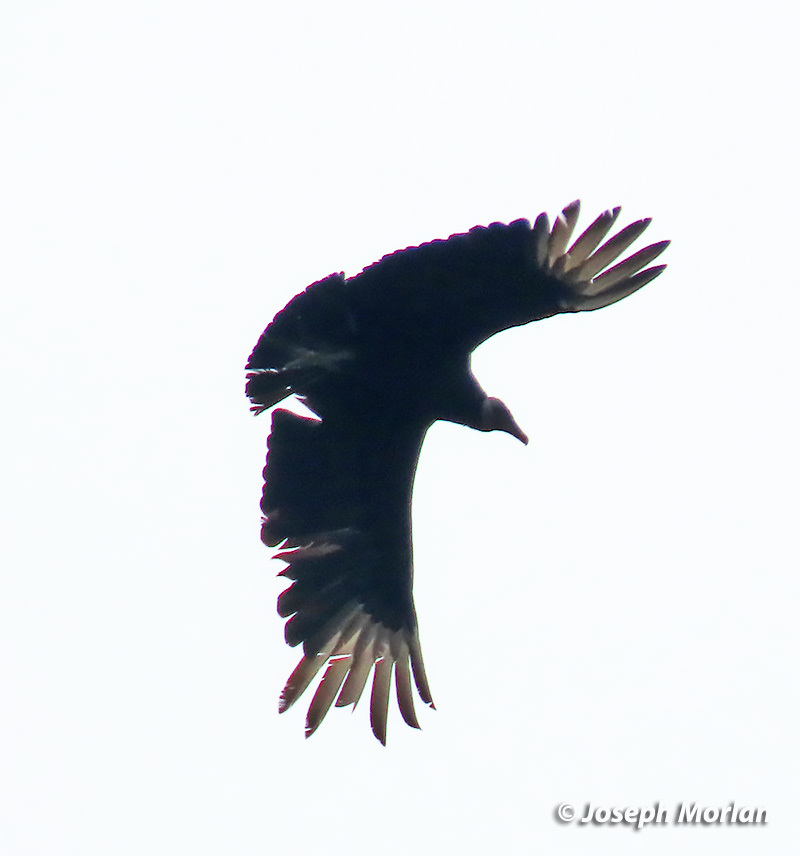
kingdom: Animalia
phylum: Chordata
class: Aves
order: Accipitriformes
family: Cathartidae
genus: Coragyps
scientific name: Coragyps atratus
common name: Black vulture
